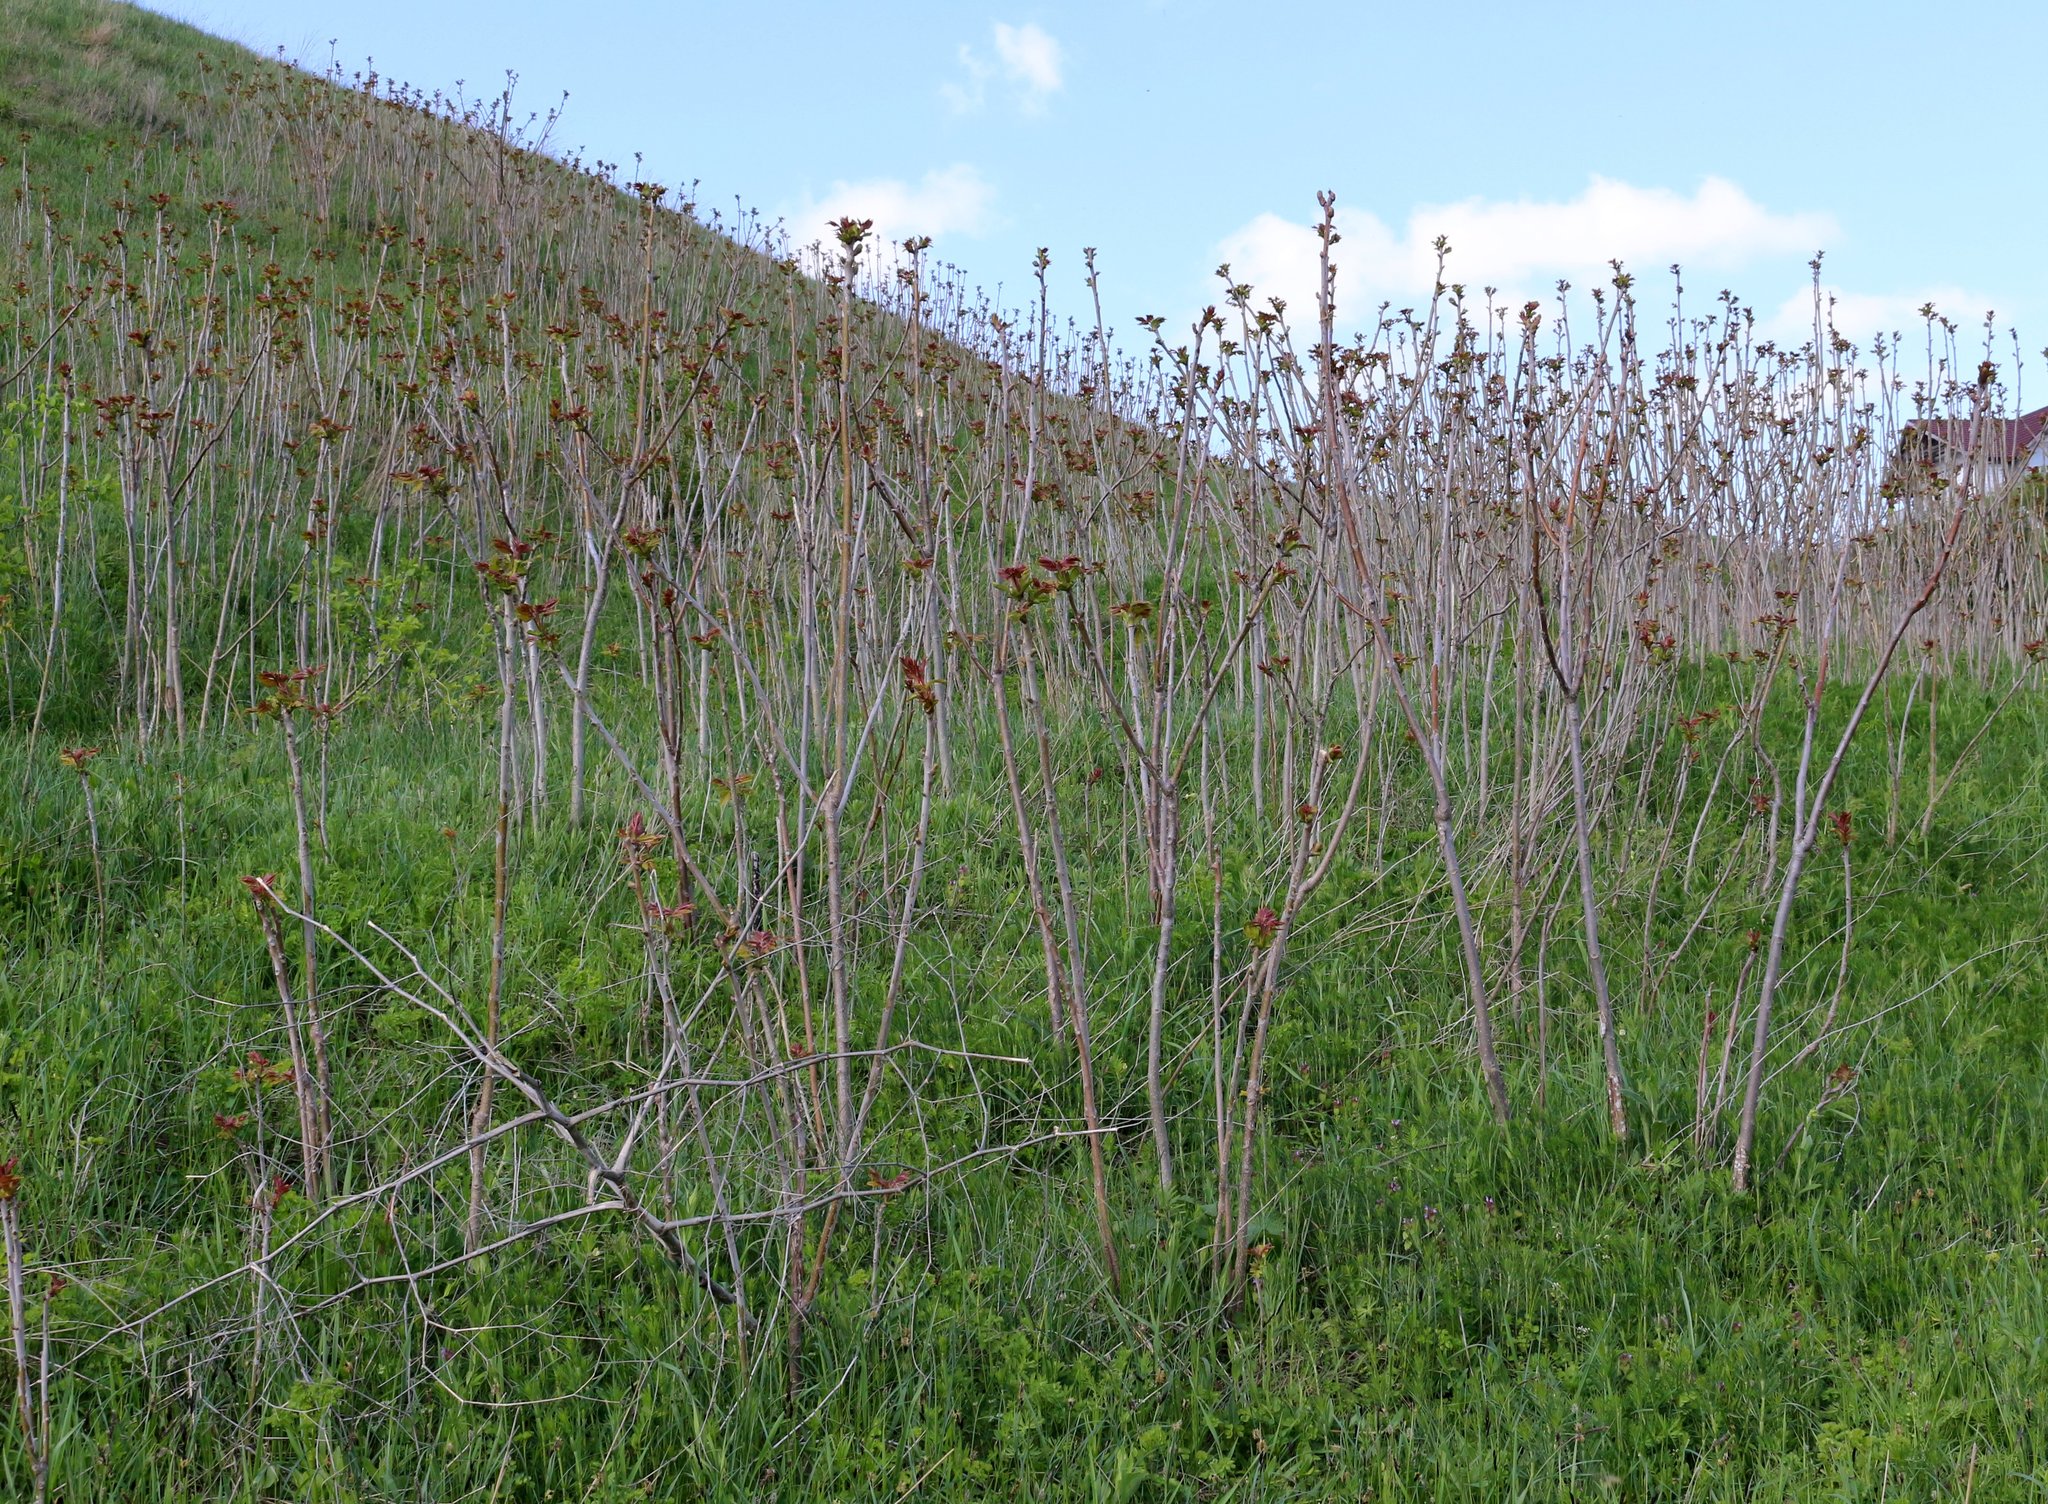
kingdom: Plantae
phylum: Tracheophyta
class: Magnoliopsida
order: Sapindales
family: Simaroubaceae
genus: Ailanthus
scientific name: Ailanthus altissima
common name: Tree-of-heaven
